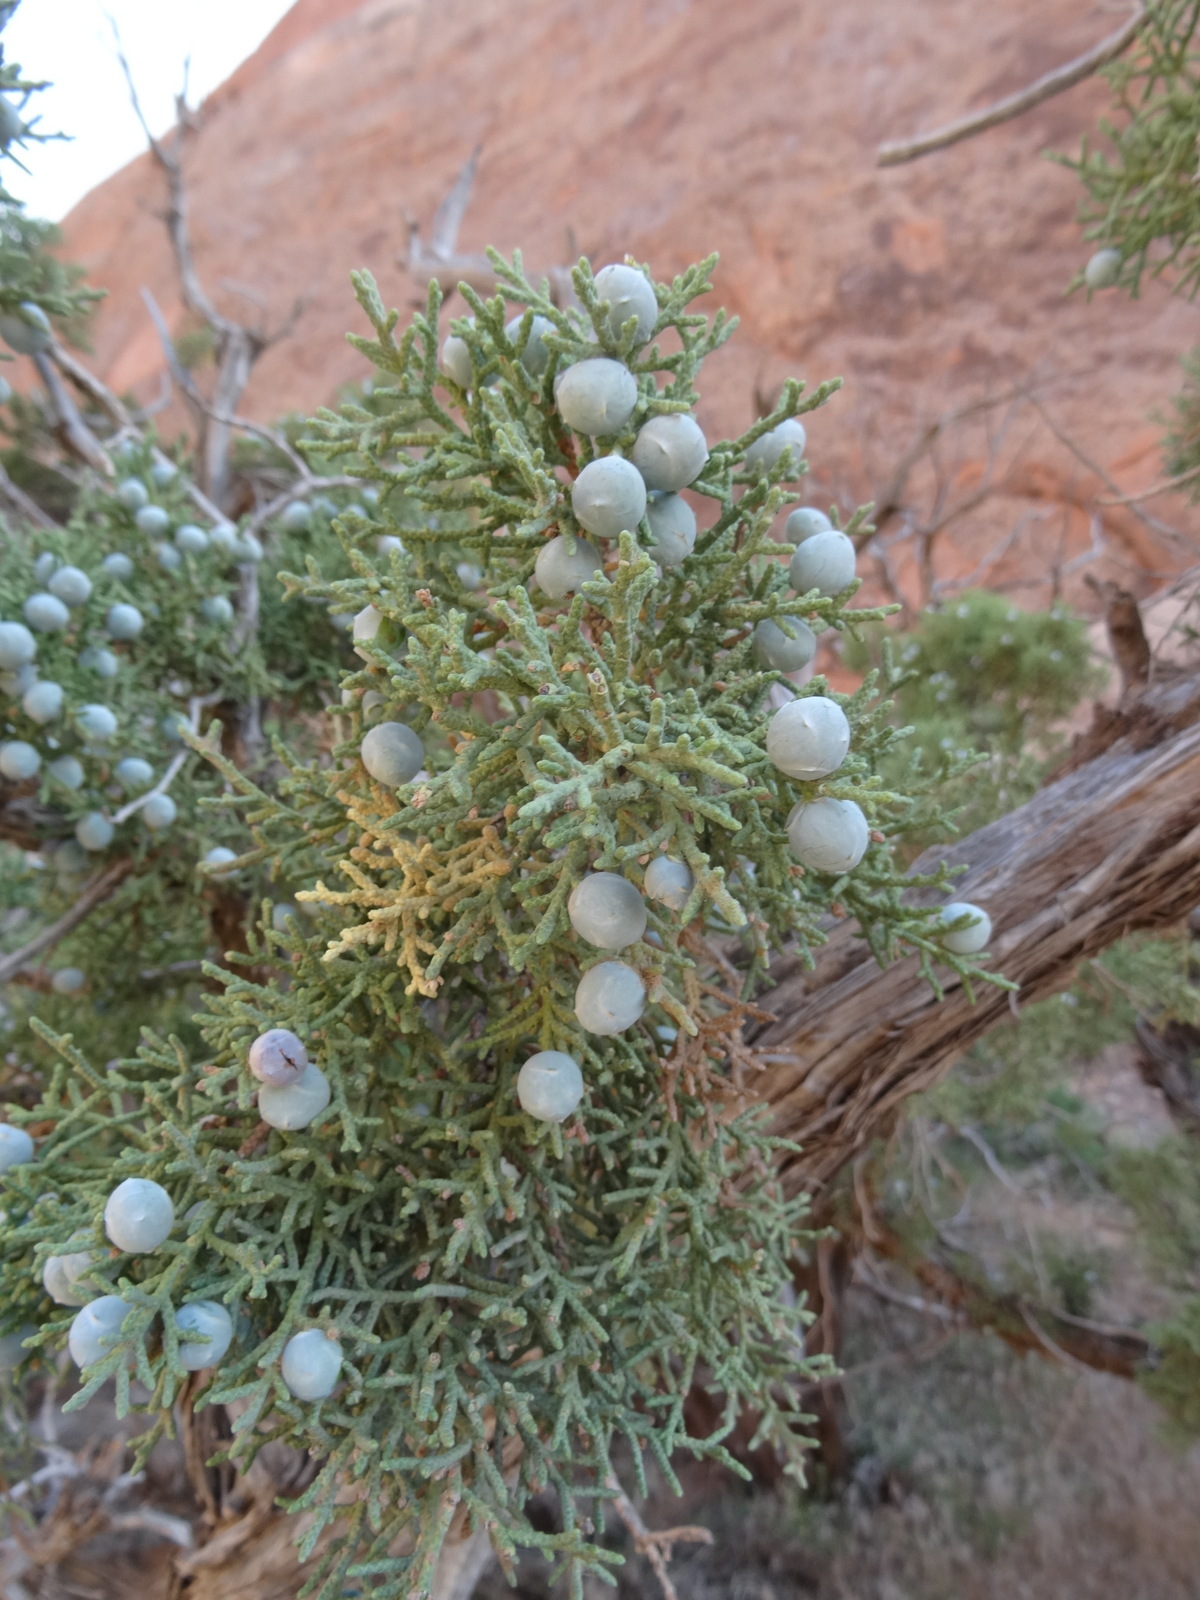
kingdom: Plantae
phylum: Tracheophyta
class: Pinopsida
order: Pinales
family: Cupressaceae
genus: Juniperus
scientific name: Juniperus osteosperma
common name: Utah juniper
